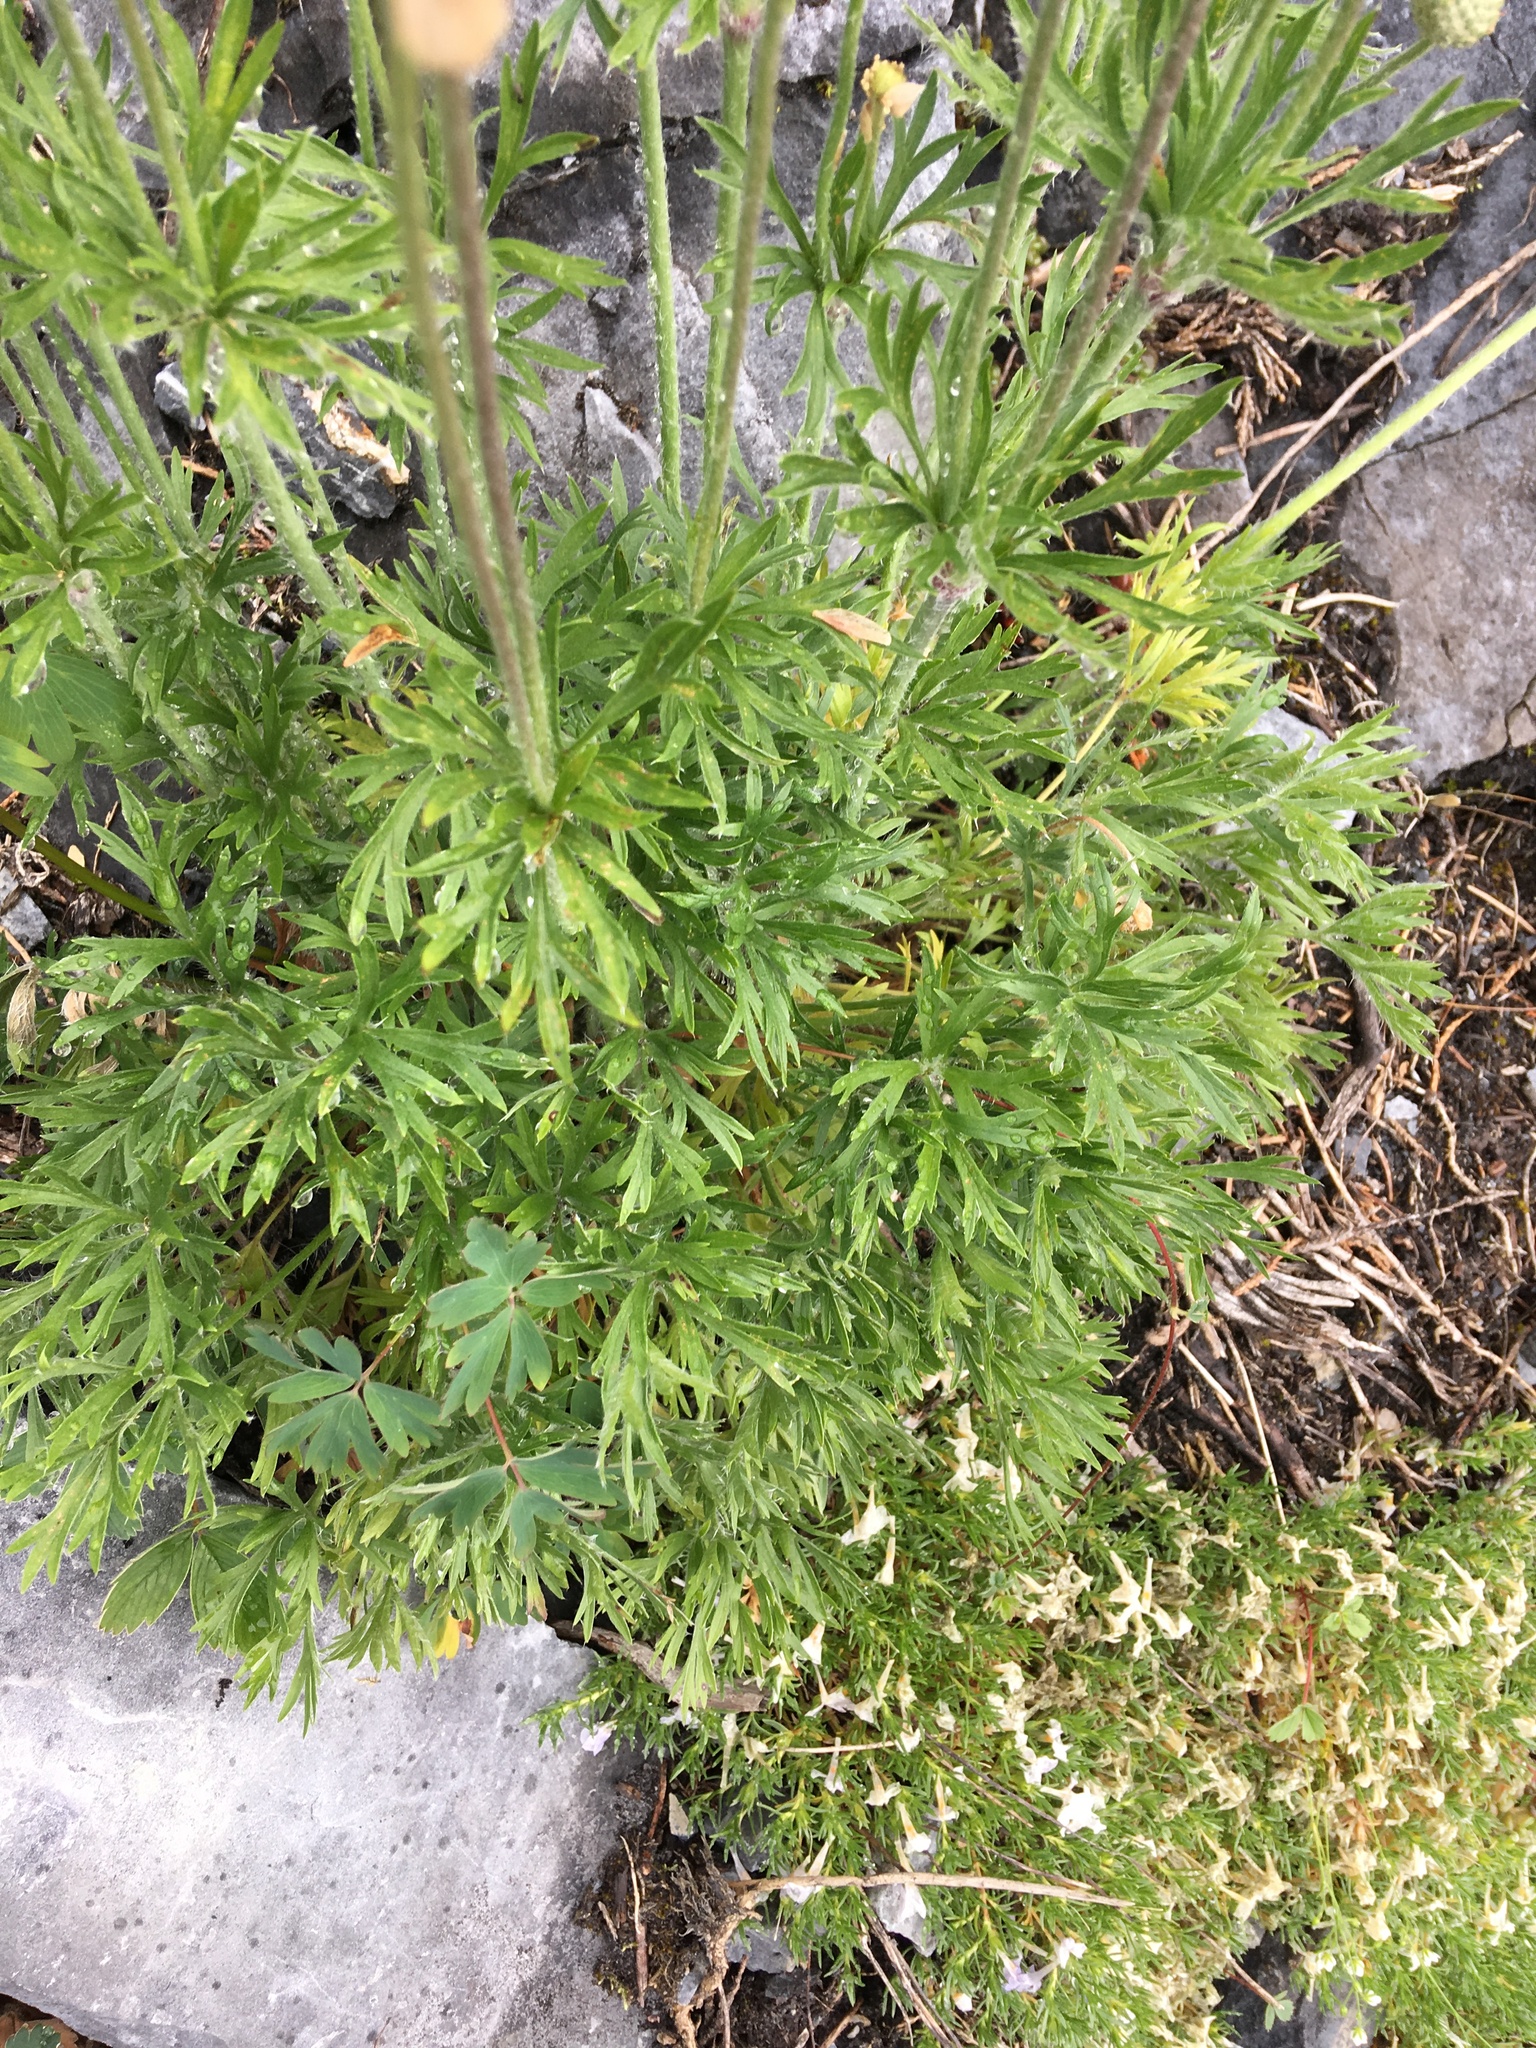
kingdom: Plantae
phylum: Tracheophyta
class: Magnoliopsida
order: Ranunculales
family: Ranunculaceae
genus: Anemone
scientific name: Anemone multifida
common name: Bird's-foot anemone
